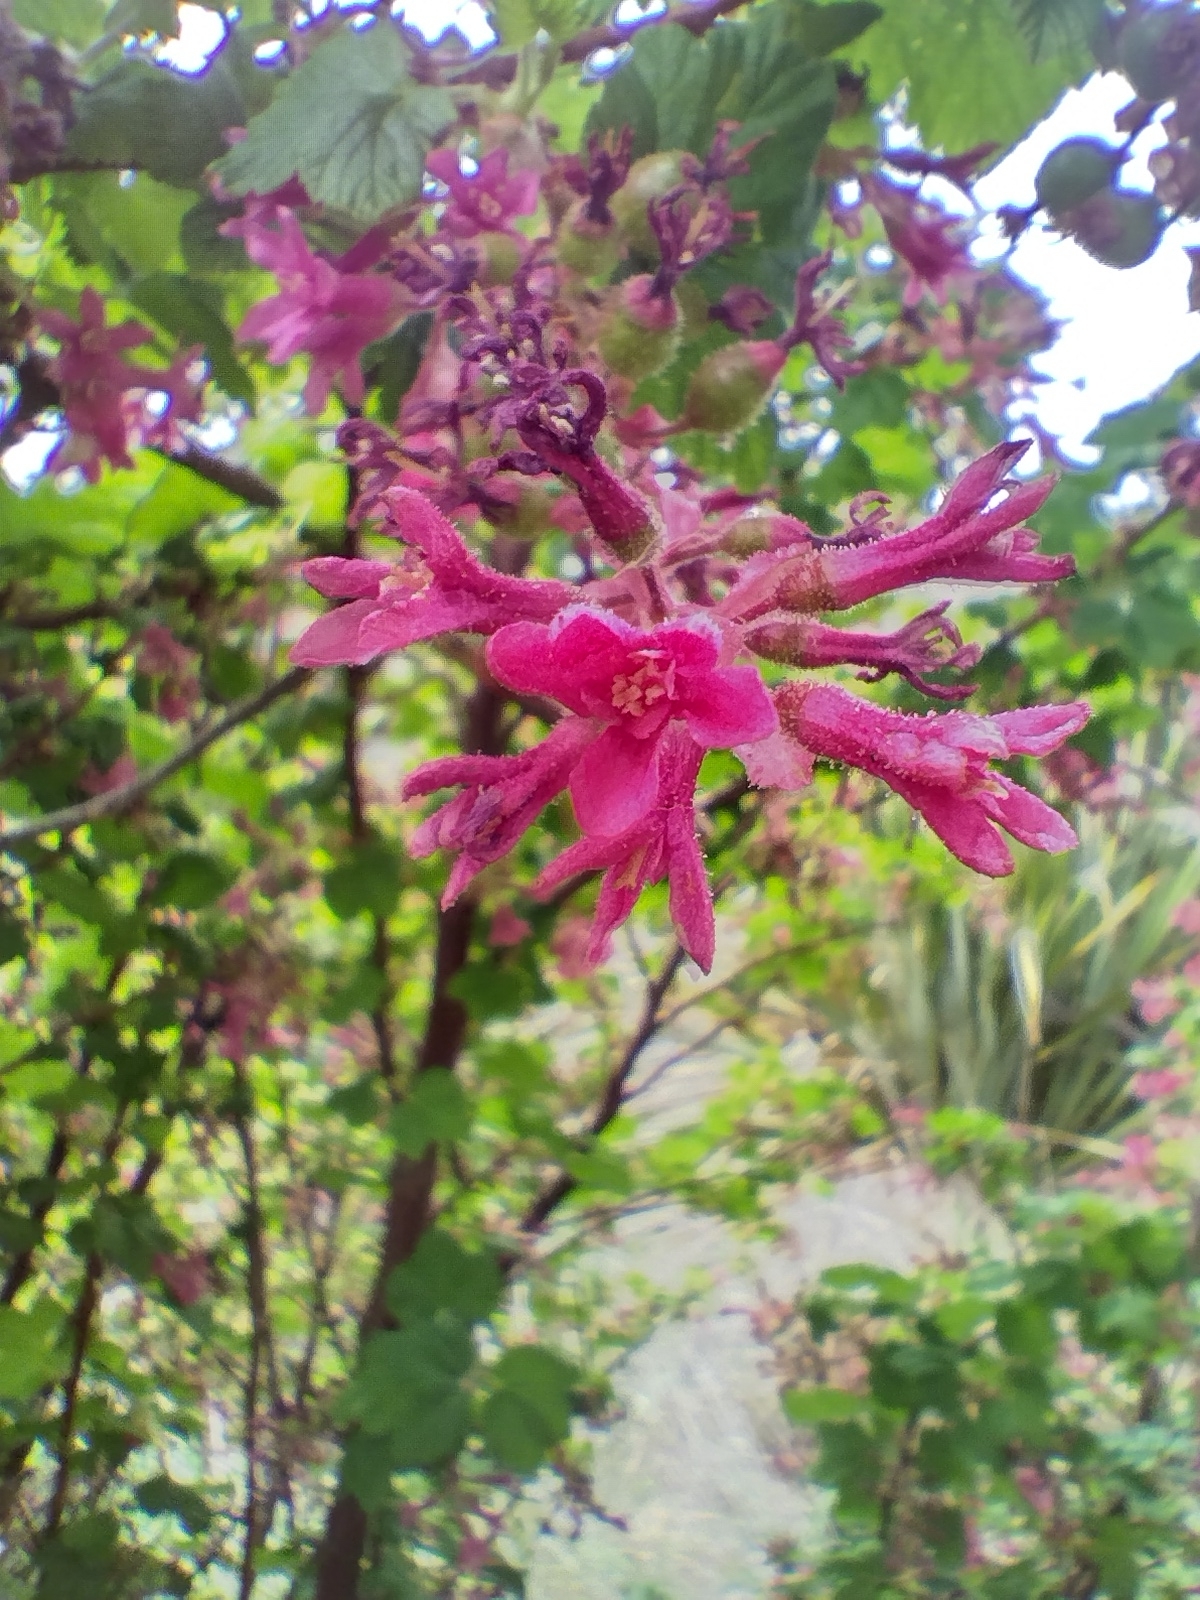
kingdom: Plantae
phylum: Tracheophyta
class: Magnoliopsida
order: Saxifragales
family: Grossulariaceae
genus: Ribes
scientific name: Ribes sanguineum
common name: Flowering currant
